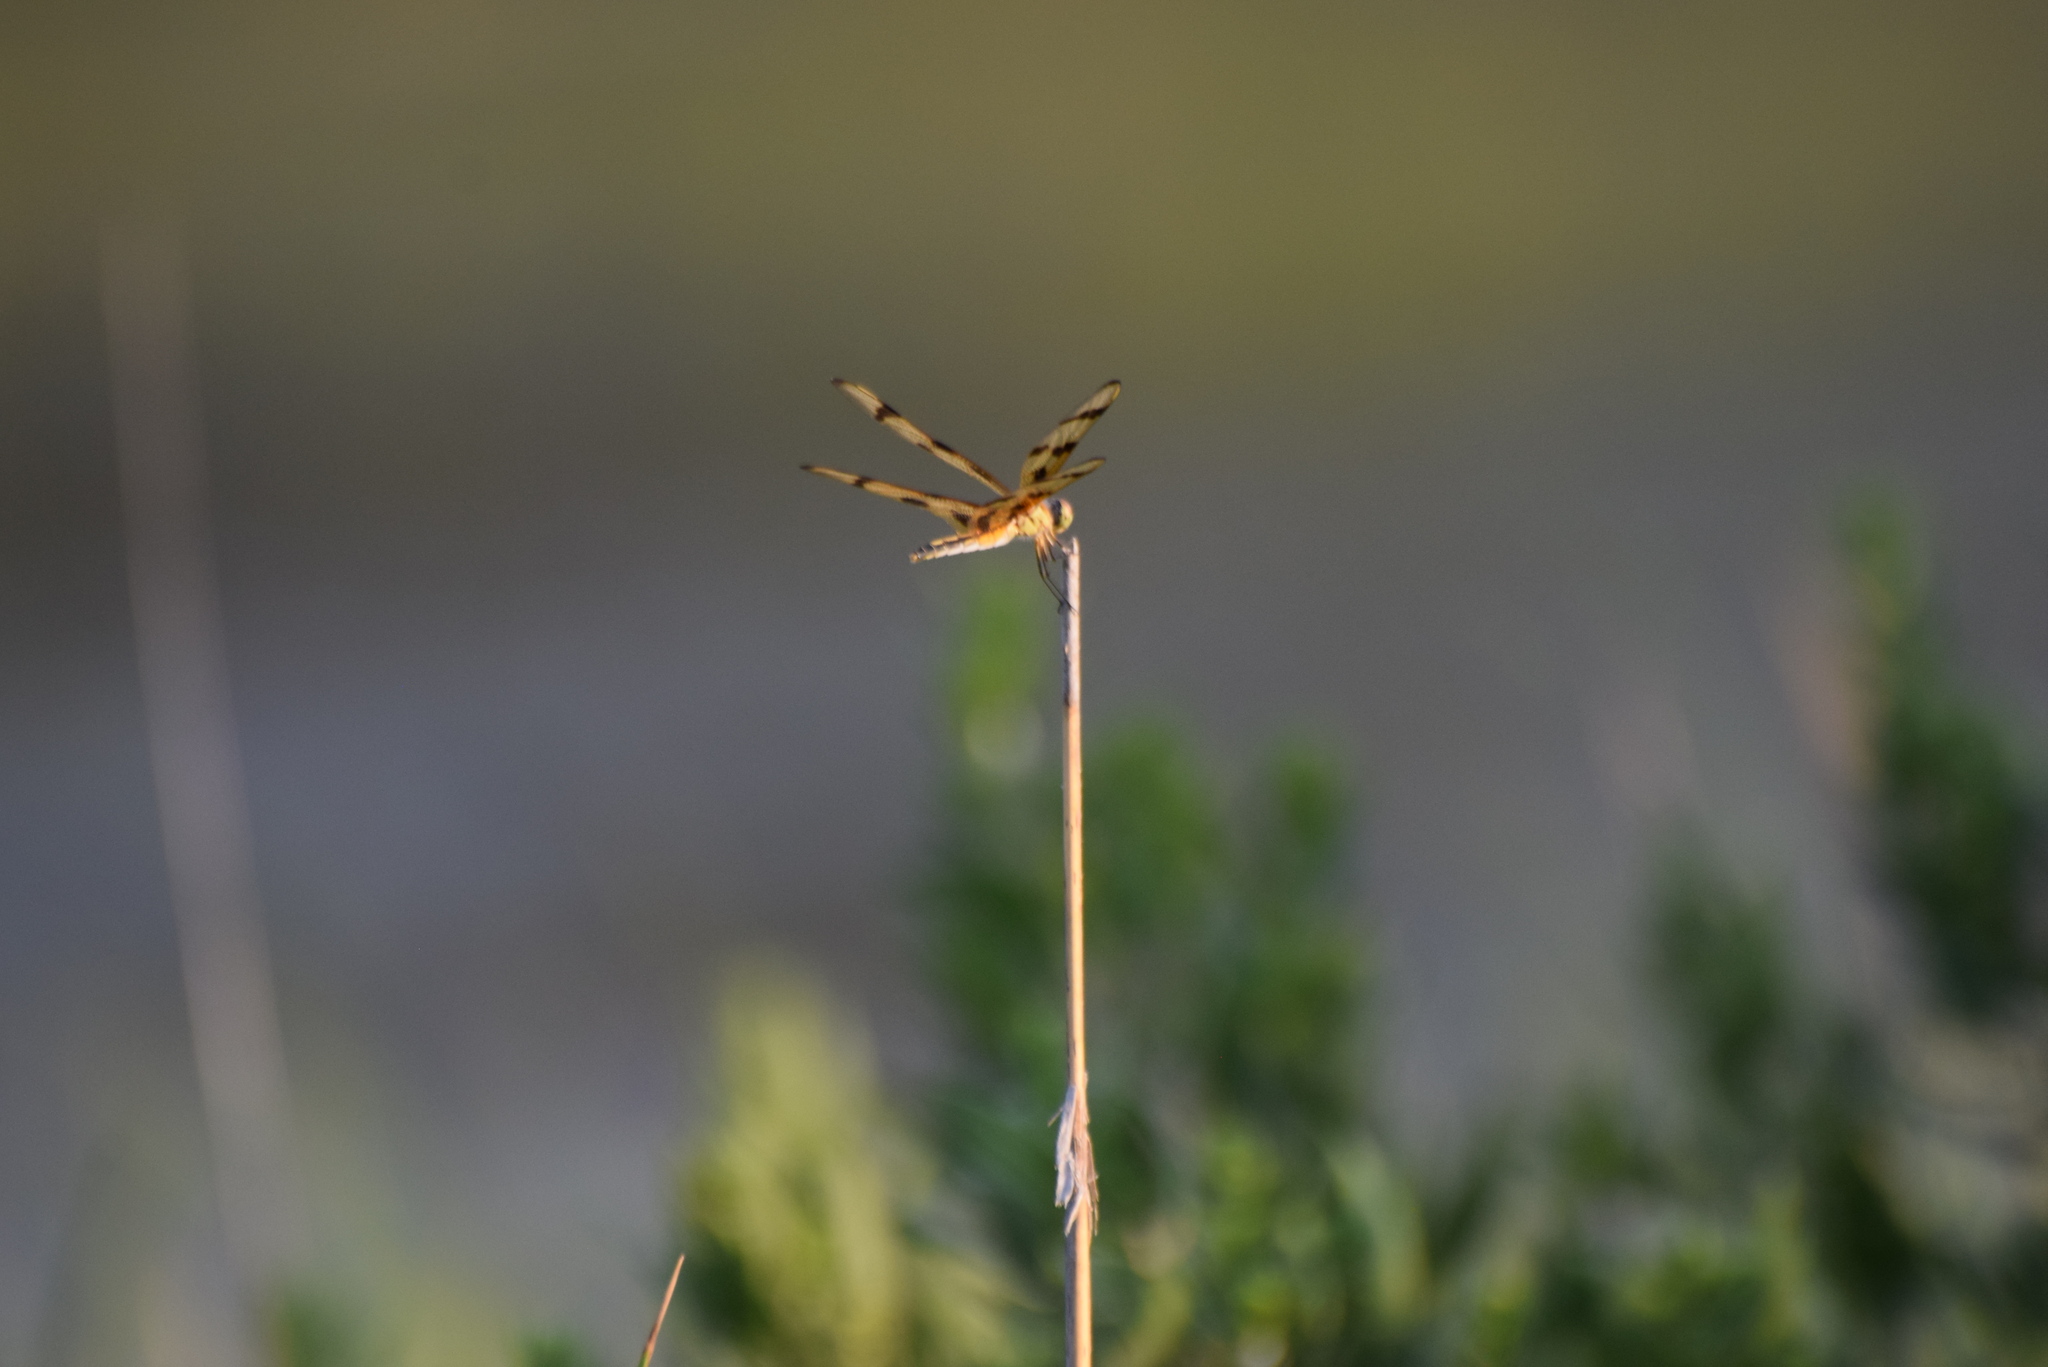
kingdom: Animalia
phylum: Arthropoda
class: Insecta
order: Odonata
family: Libellulidae
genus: Celithemis
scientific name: Celithemis eponina
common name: Halloween pennant
